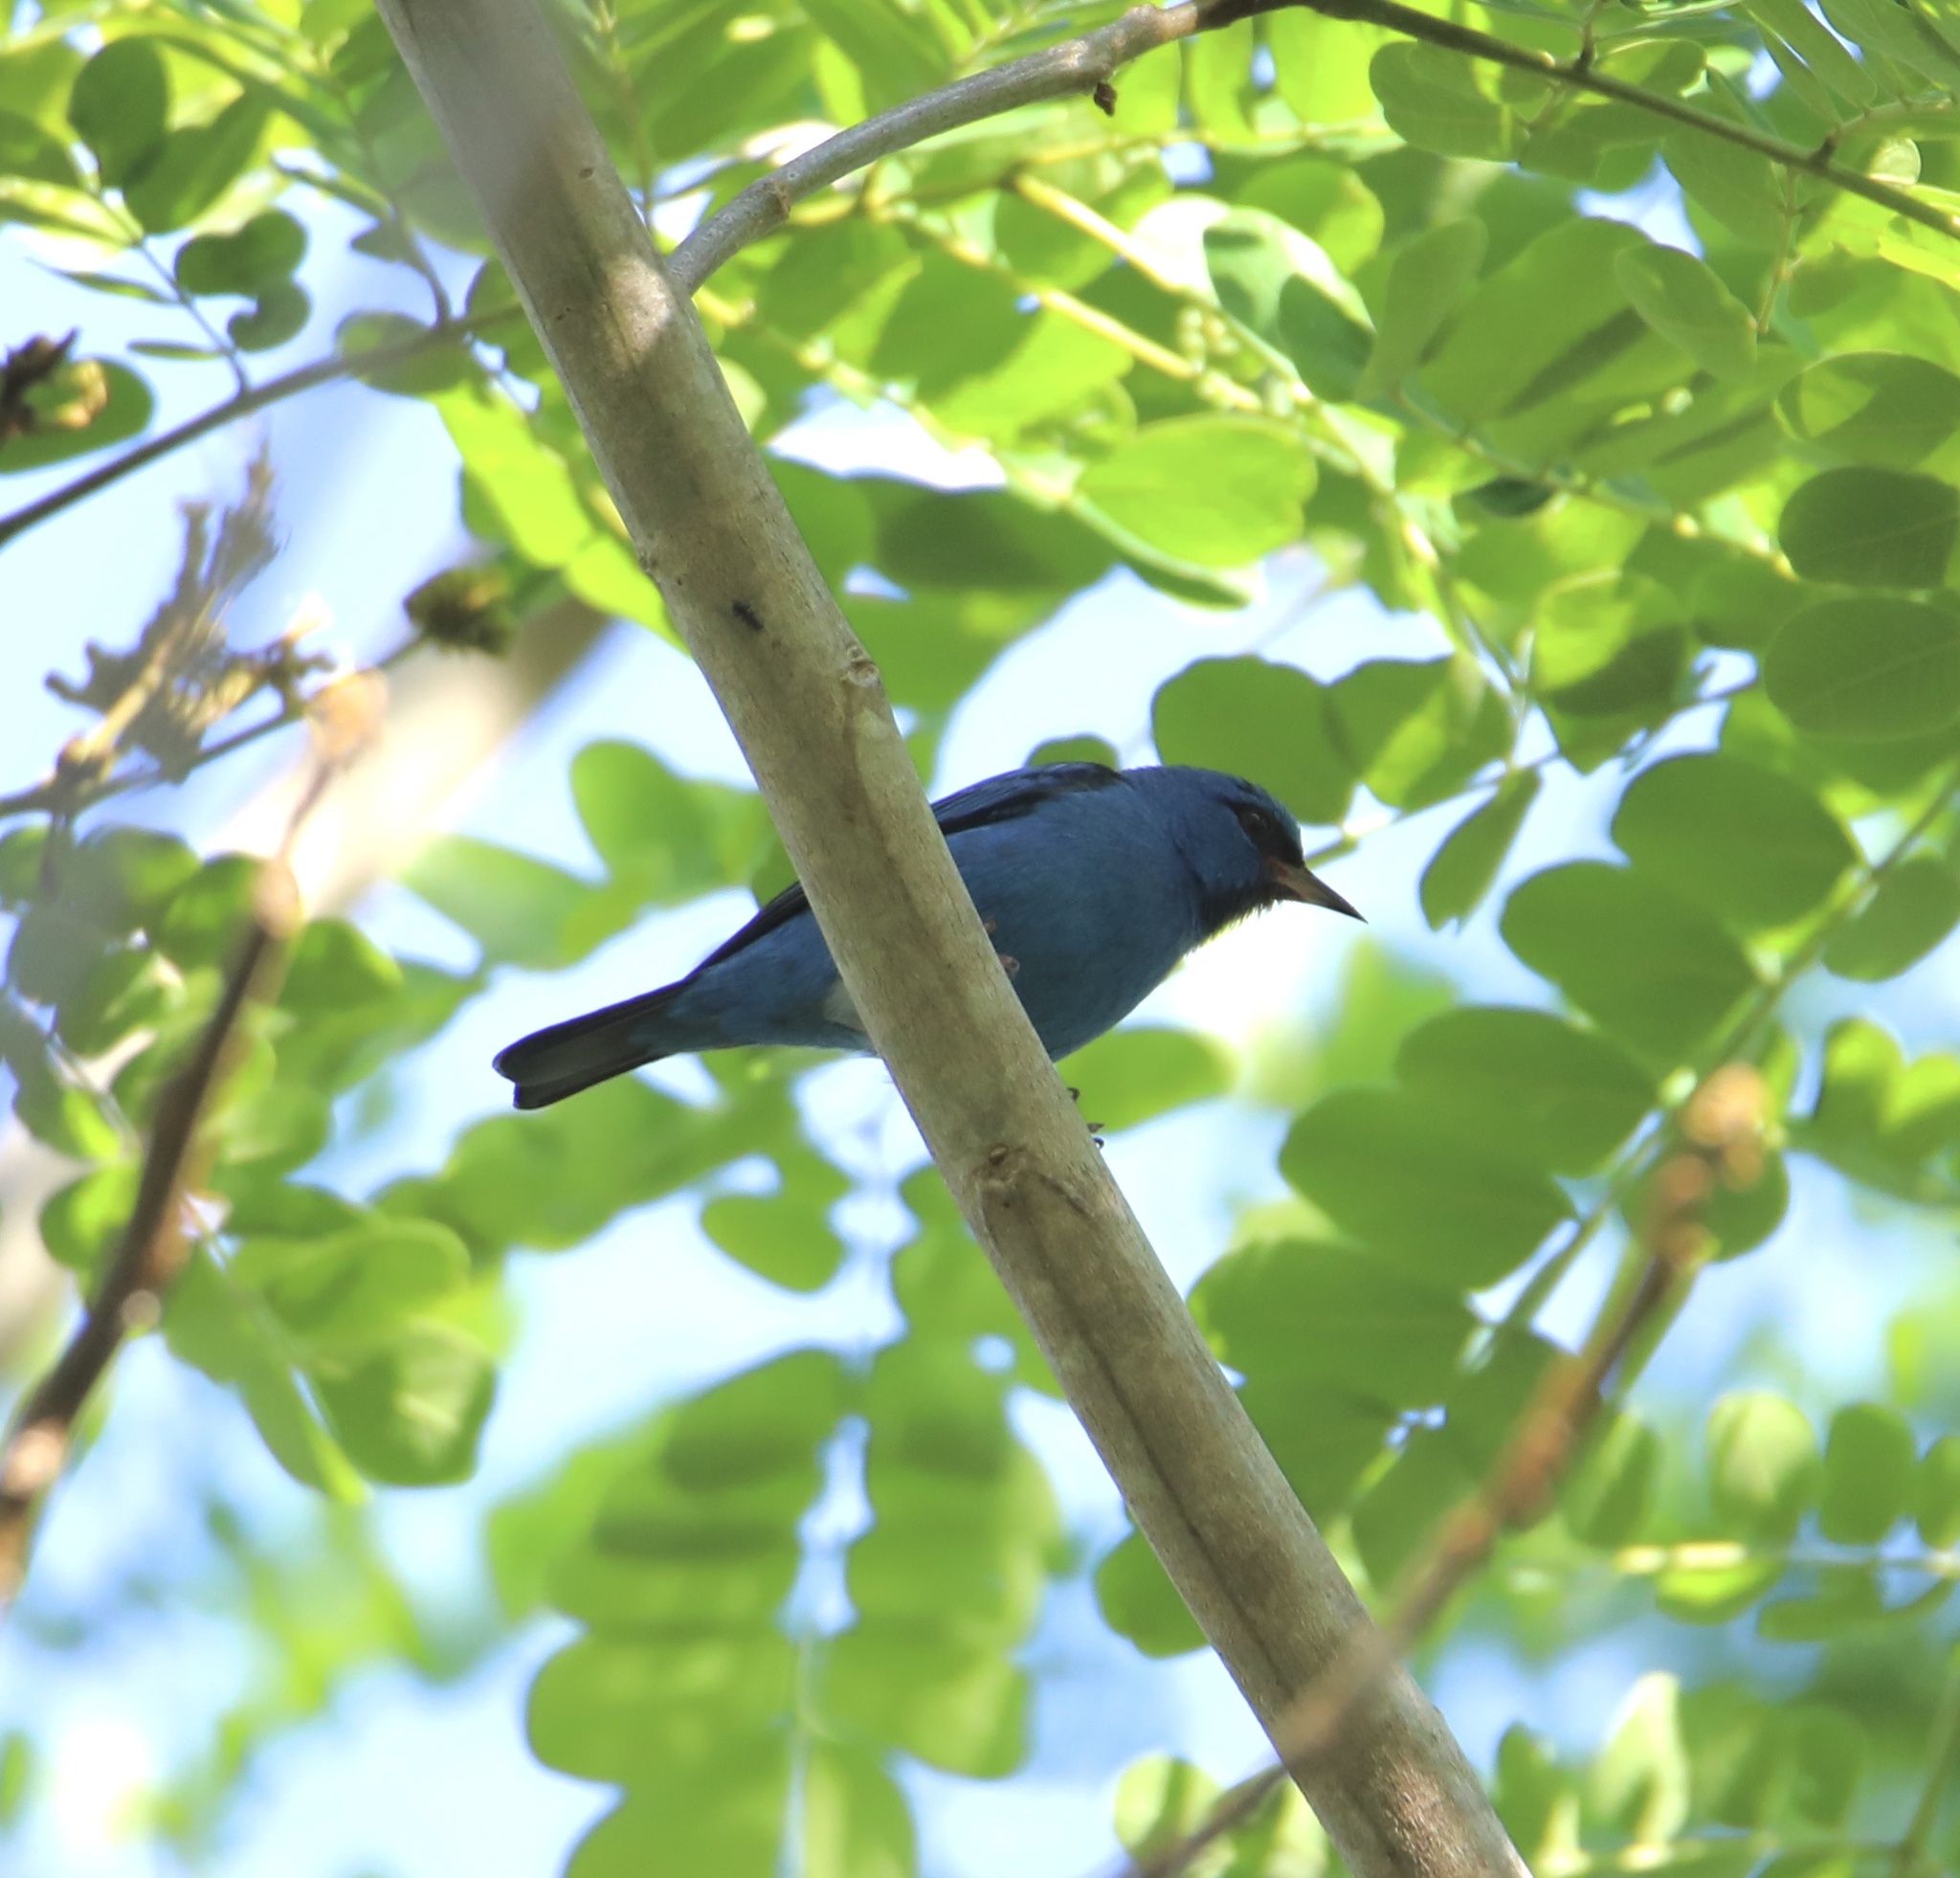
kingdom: Animalia
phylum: Chordata
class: Aves
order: Passeriformes
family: Thraupidae
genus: Dacnis
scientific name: Dacnis cayana
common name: Blue dacnis
